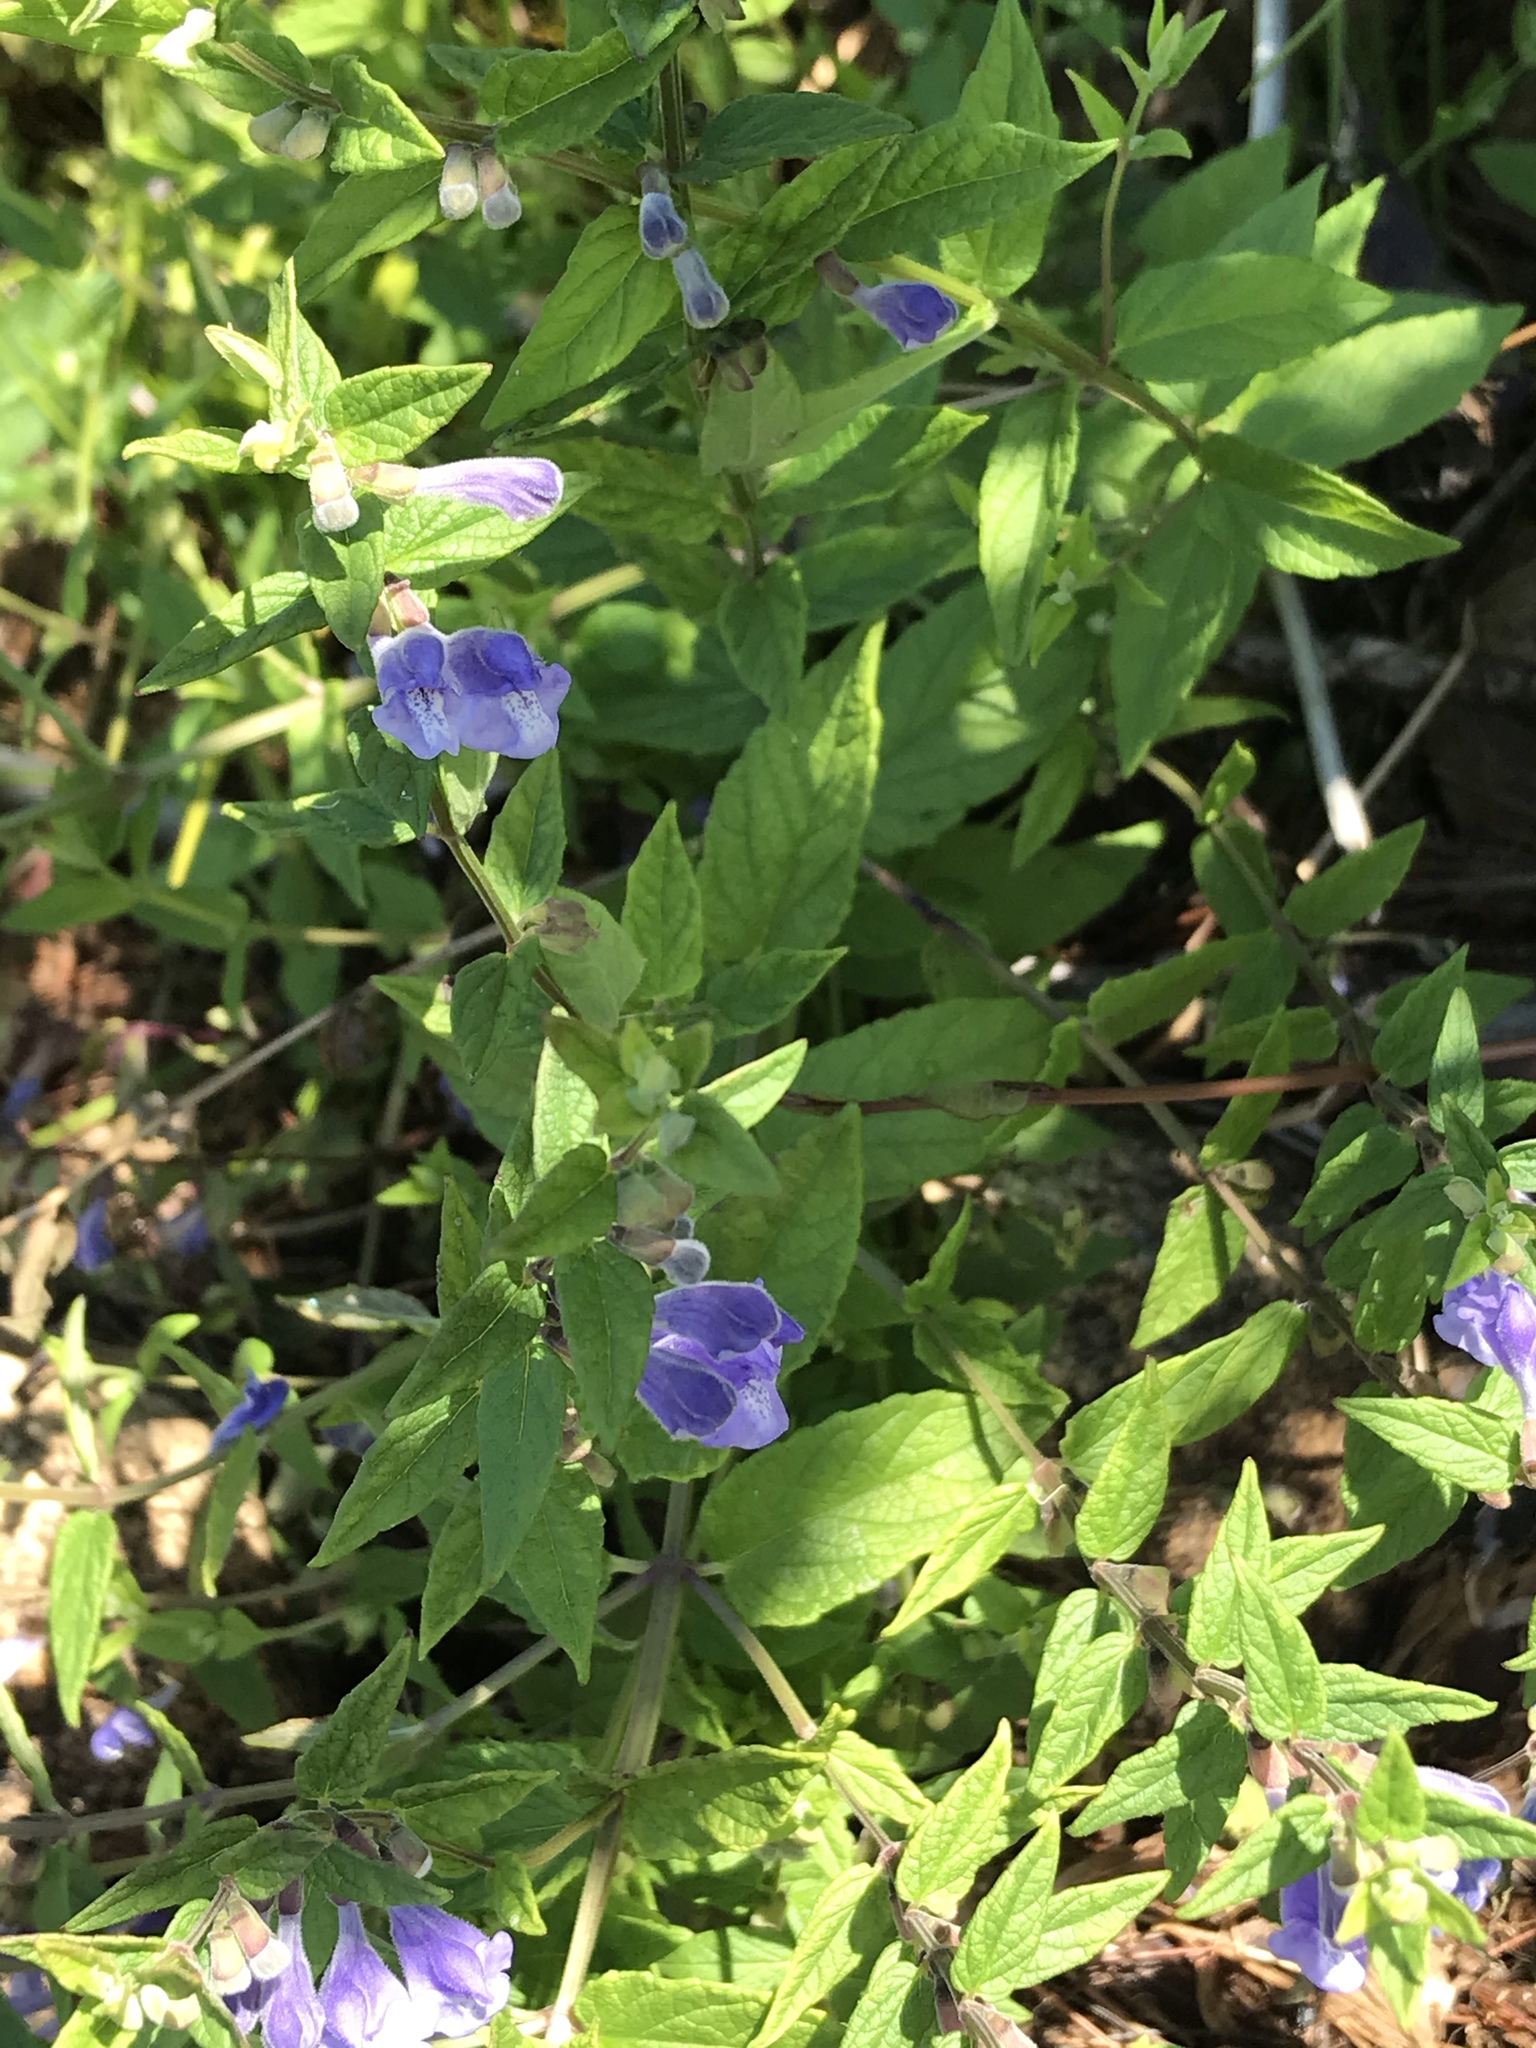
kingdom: Plantae
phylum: Tracheophyta
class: Magnoliopsida
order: Lamiales
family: Lamiaceae
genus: Scutellaria
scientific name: Scutellaria galericulata
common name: Skullcap
